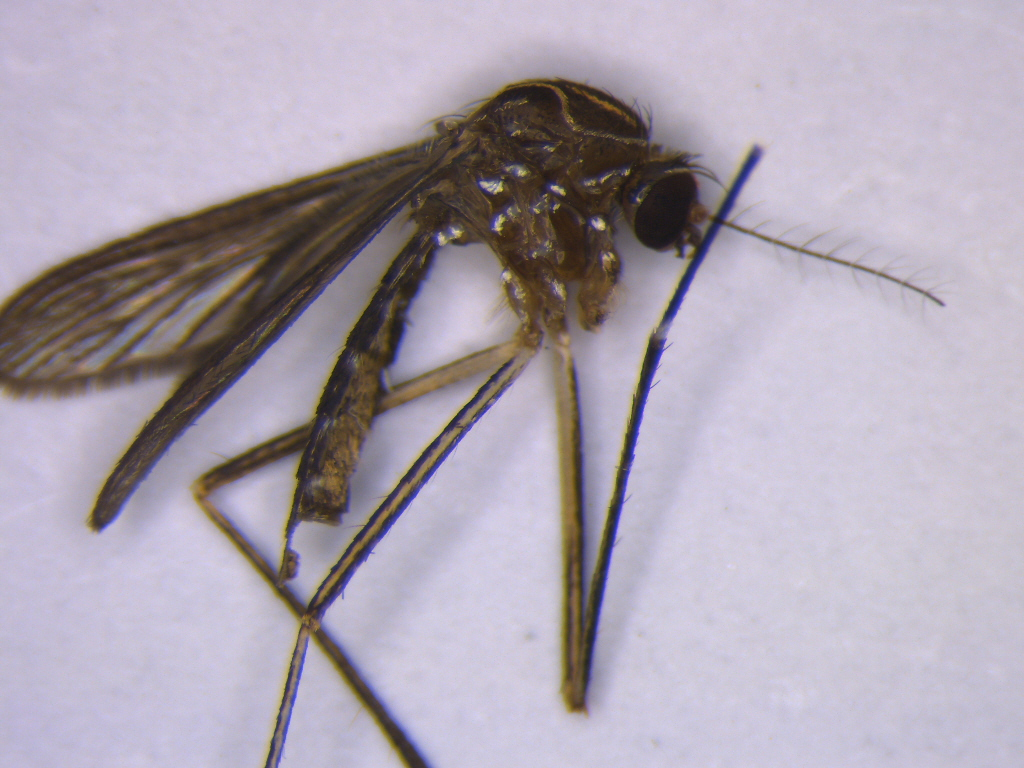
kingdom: Animalia
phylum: Arthropoda
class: Insecta
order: Diptera
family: Culicidae
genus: Aedes
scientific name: Aedes notoscriptus
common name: Australian backyard mosquito
